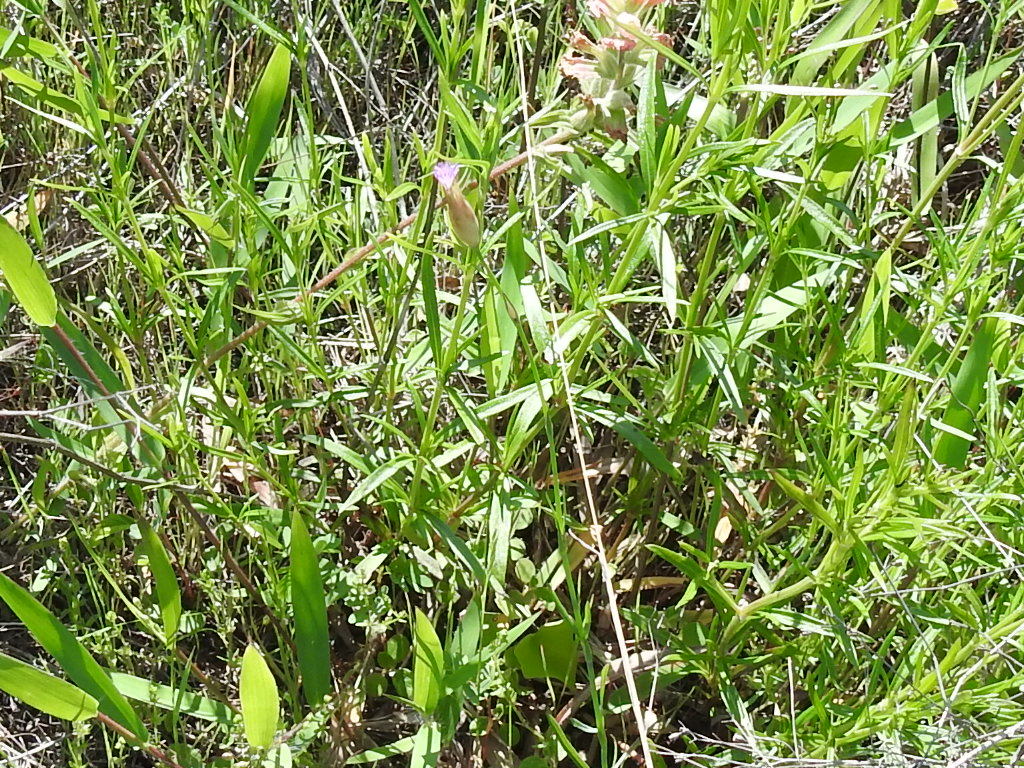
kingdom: Plantae
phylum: Tracheophyta
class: Magnoliopsida
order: Caryophyllales
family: Caryophyllaceae
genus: Petrorhagia
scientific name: Petrorhagia dubia
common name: Hairypink
